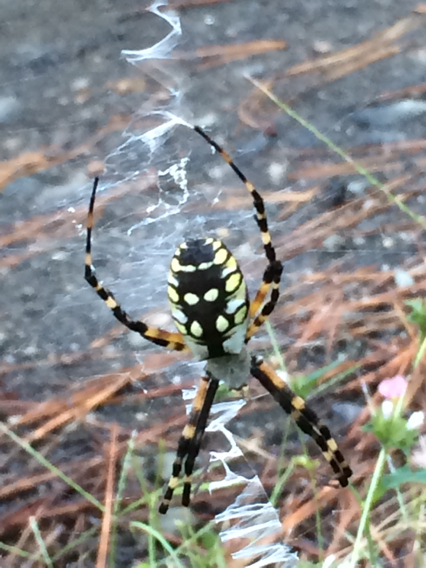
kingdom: Animalia
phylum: Arthropoda
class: Arachnida
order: Araneae
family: Araneidae
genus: Argiope
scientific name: Argiope aurantia
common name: Orb weavers
